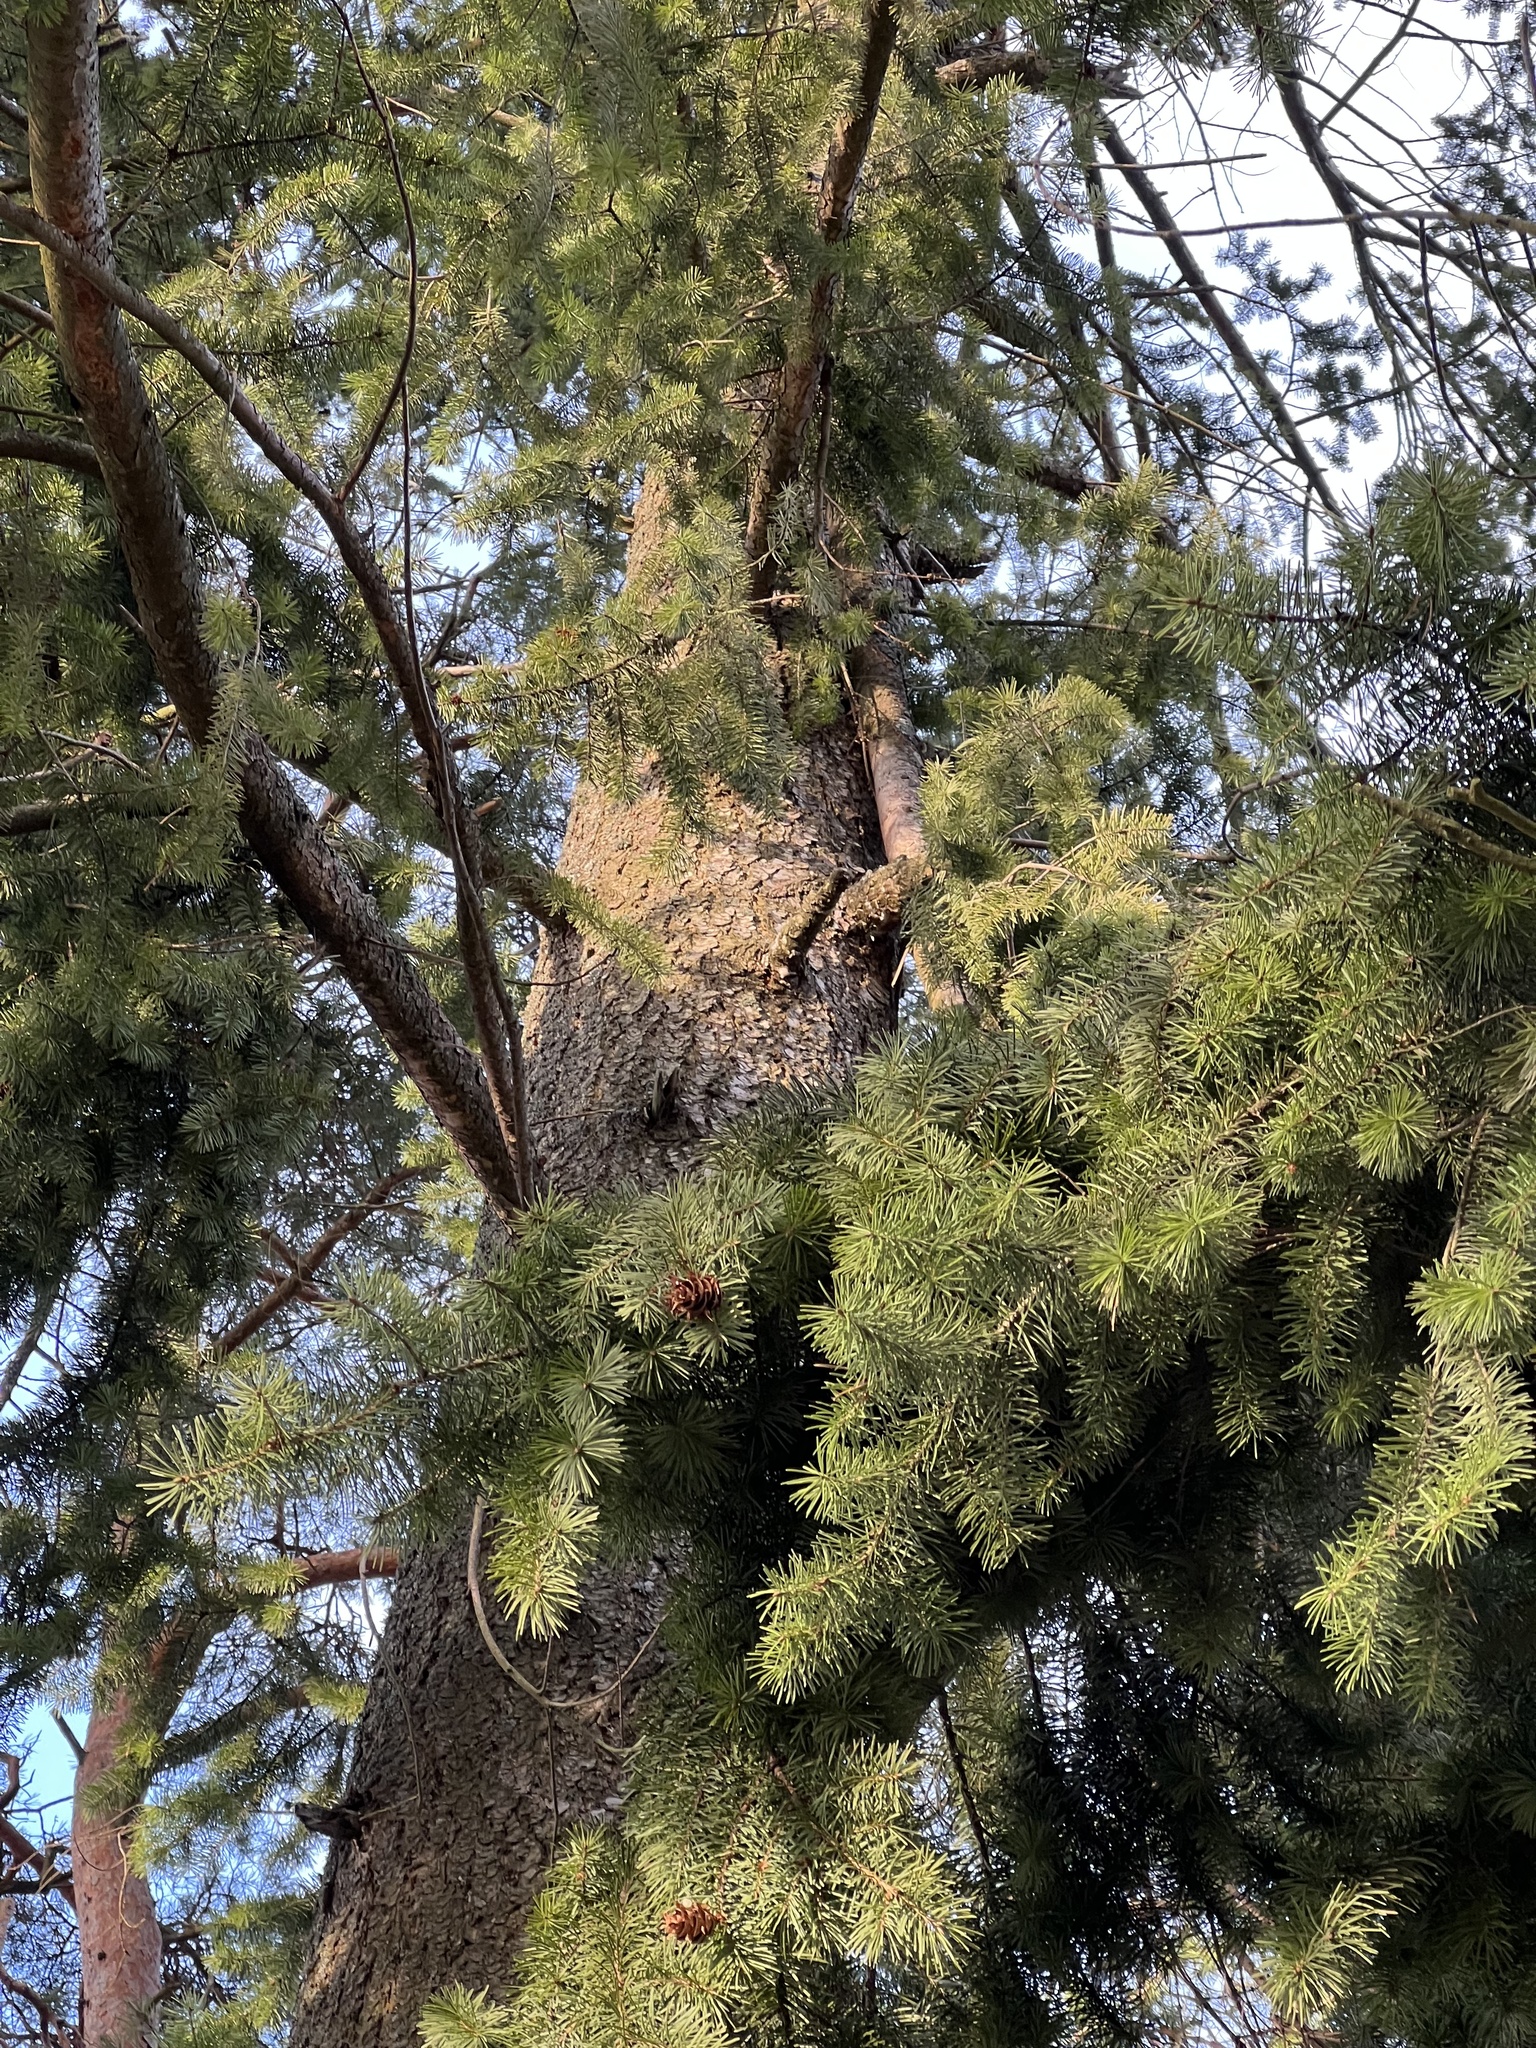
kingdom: Plantae
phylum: Tracheophyta
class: Pinopsida
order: Pinales
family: Pinaceae
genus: Pseudotsuga
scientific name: Pseudotsuga menziesii
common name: Douglas fir
